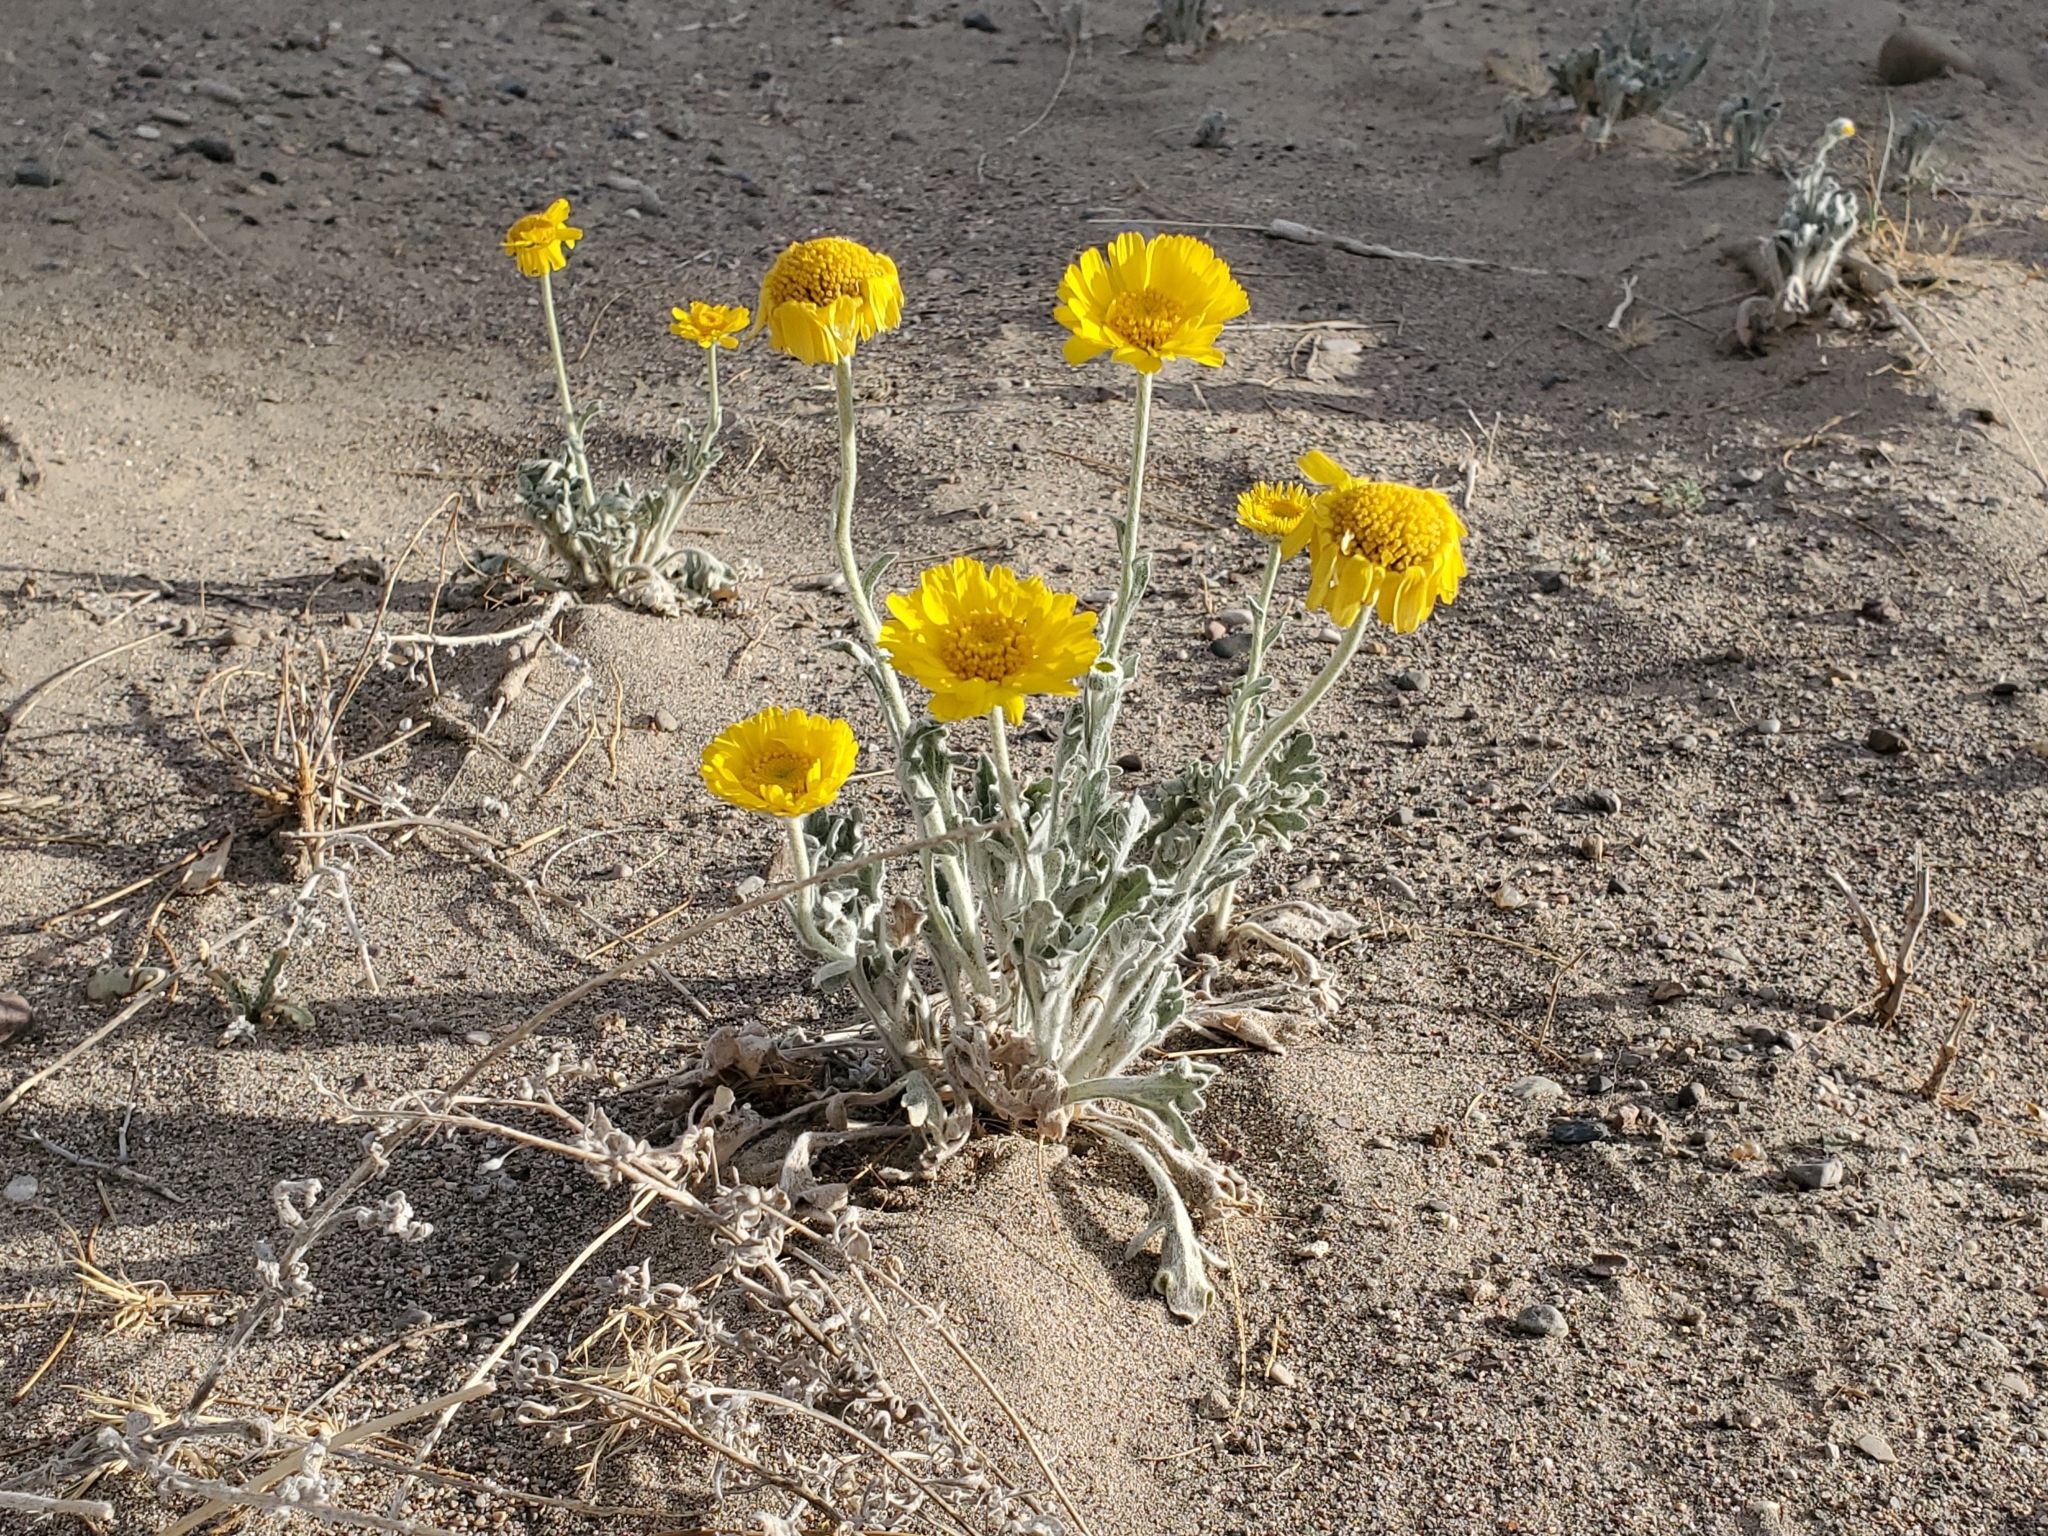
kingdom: Plantae
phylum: Tracheophyta
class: Magnoliopsida
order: Asterales
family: Asteraceae
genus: Baileya
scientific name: Baileya multiradiata
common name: Desert-marigold
